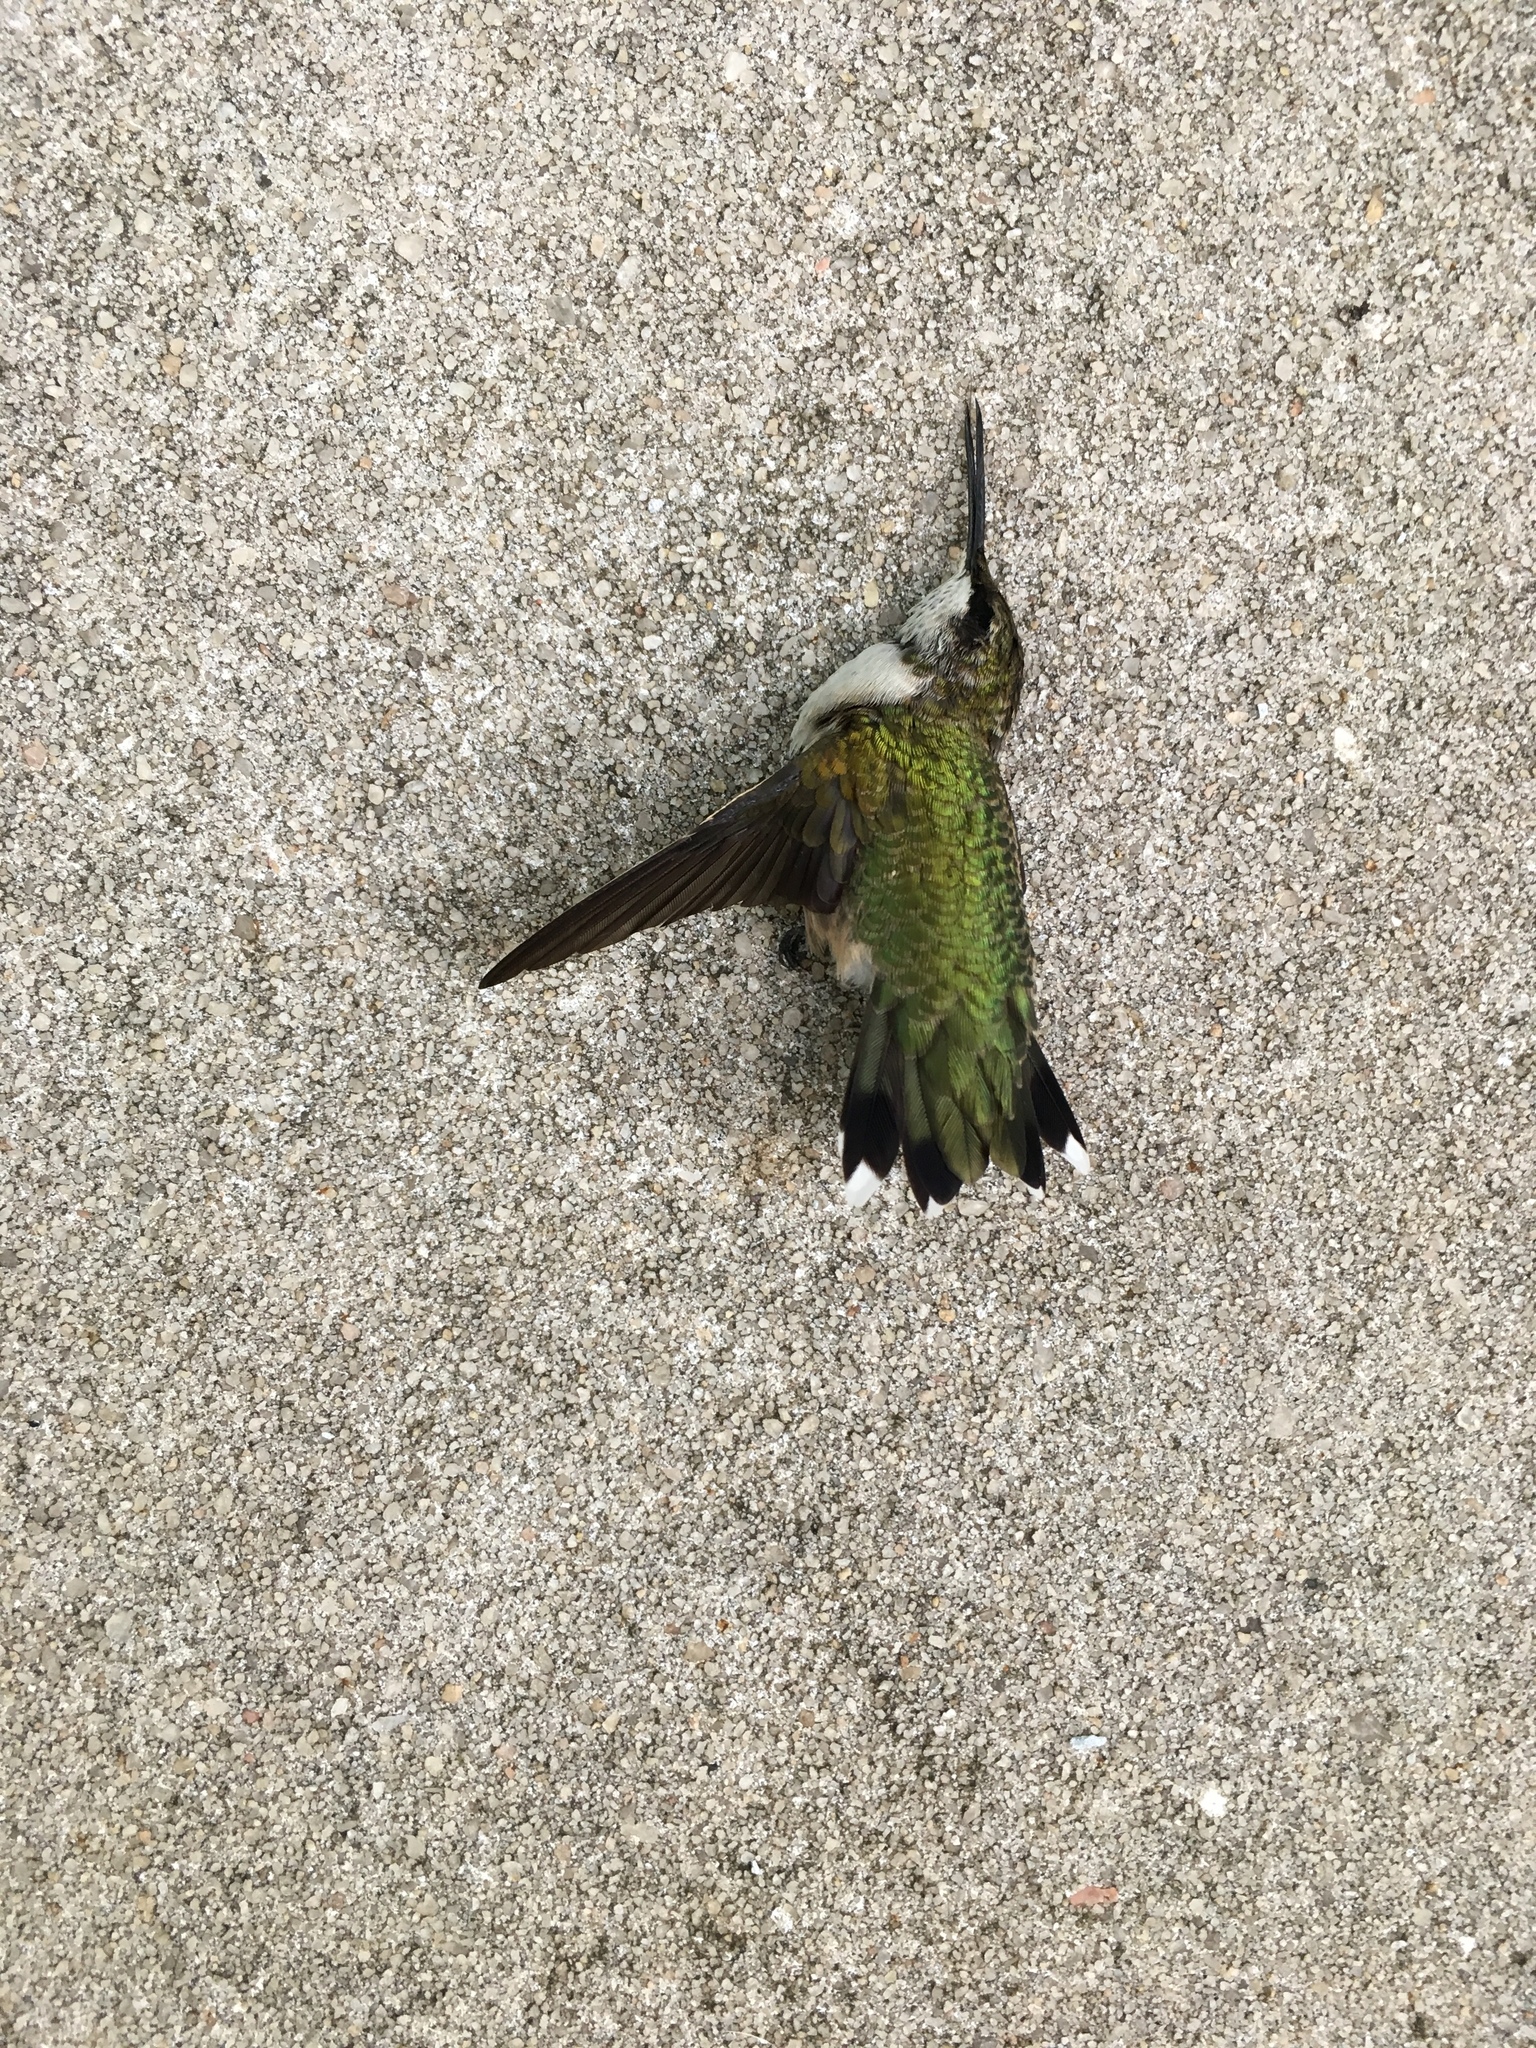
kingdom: Animalia
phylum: Chordata
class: Aves
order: Apodiformes
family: Trochilidae
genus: Archilochus
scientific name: Archilochus colubris
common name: Ruby-throated hummingbird
